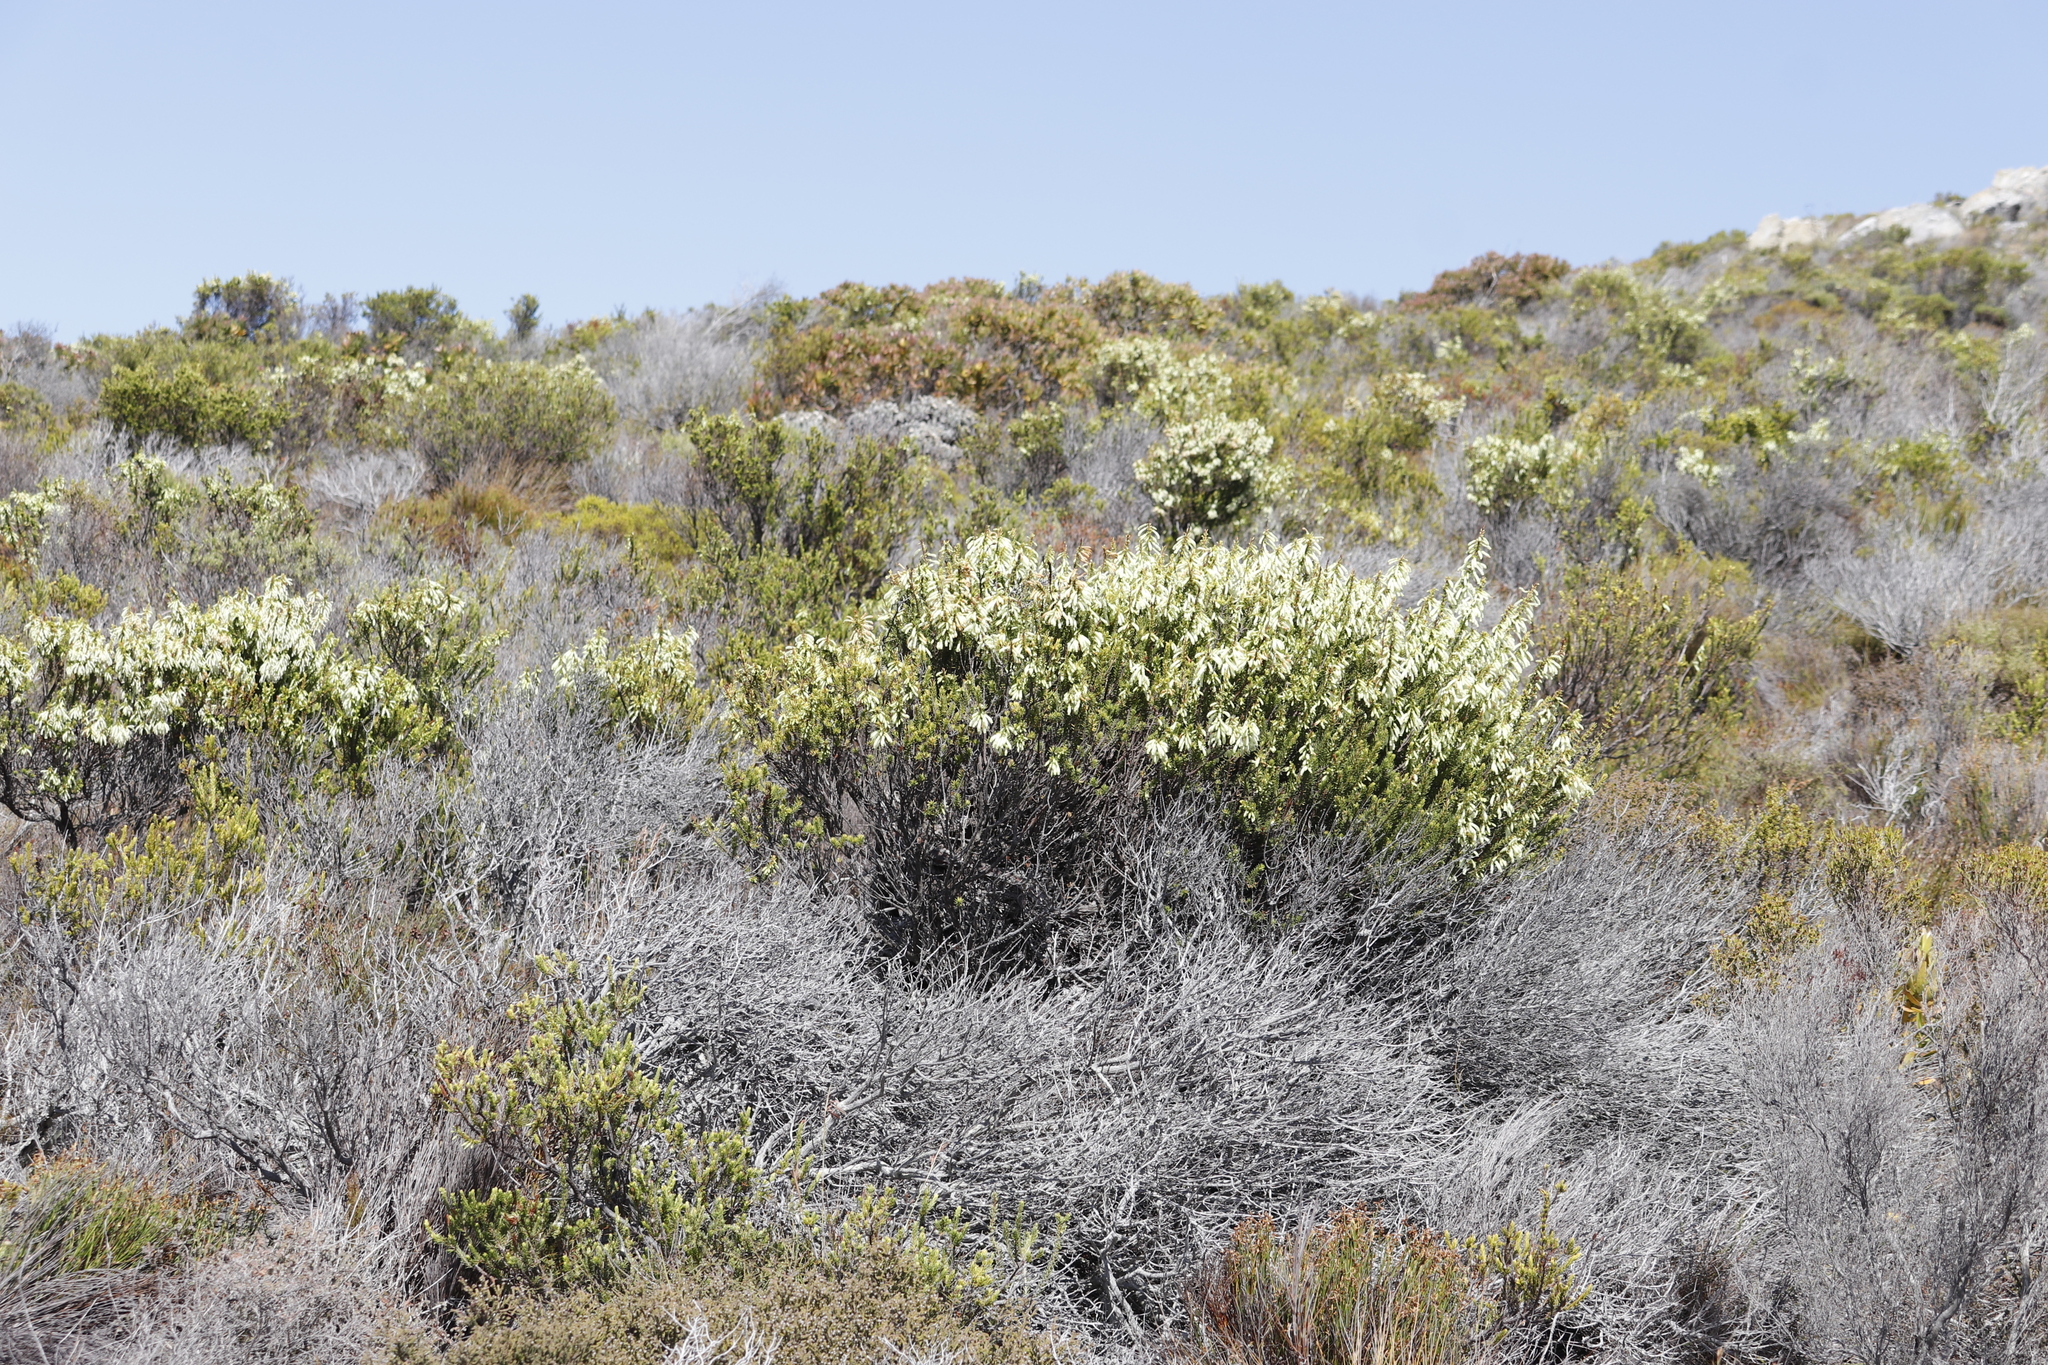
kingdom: Plantae
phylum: Tracheophyta
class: Magnoliopsida
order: Ericales
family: Ericaceae
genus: Erica
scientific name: Erica mammosa
